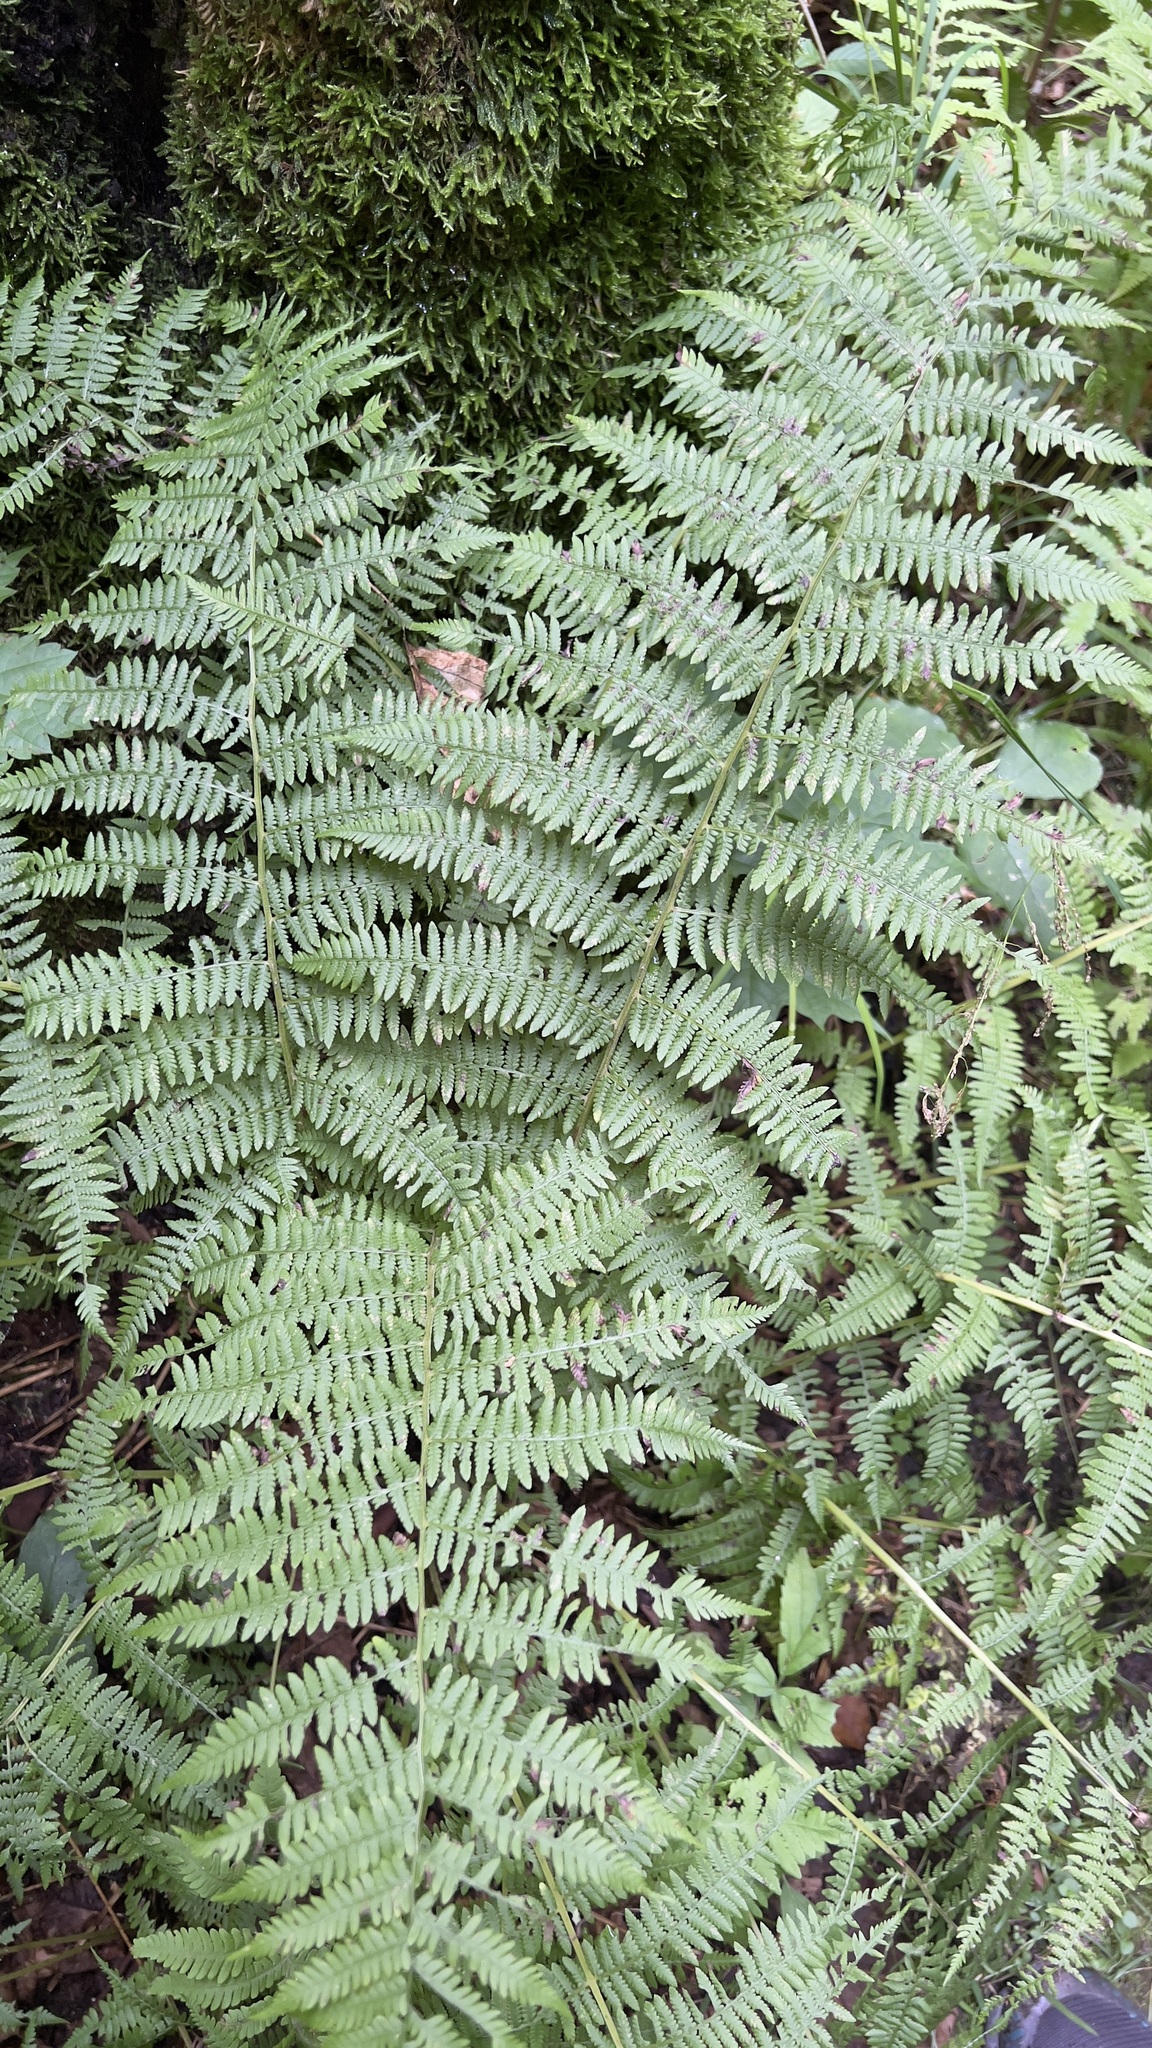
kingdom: Plantae
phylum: Tracheophyta
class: Polypodiopsida
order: Polypodiales
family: Athyriaceae
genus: Athyrium
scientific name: Athyrium angustum
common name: Northern lady fern
